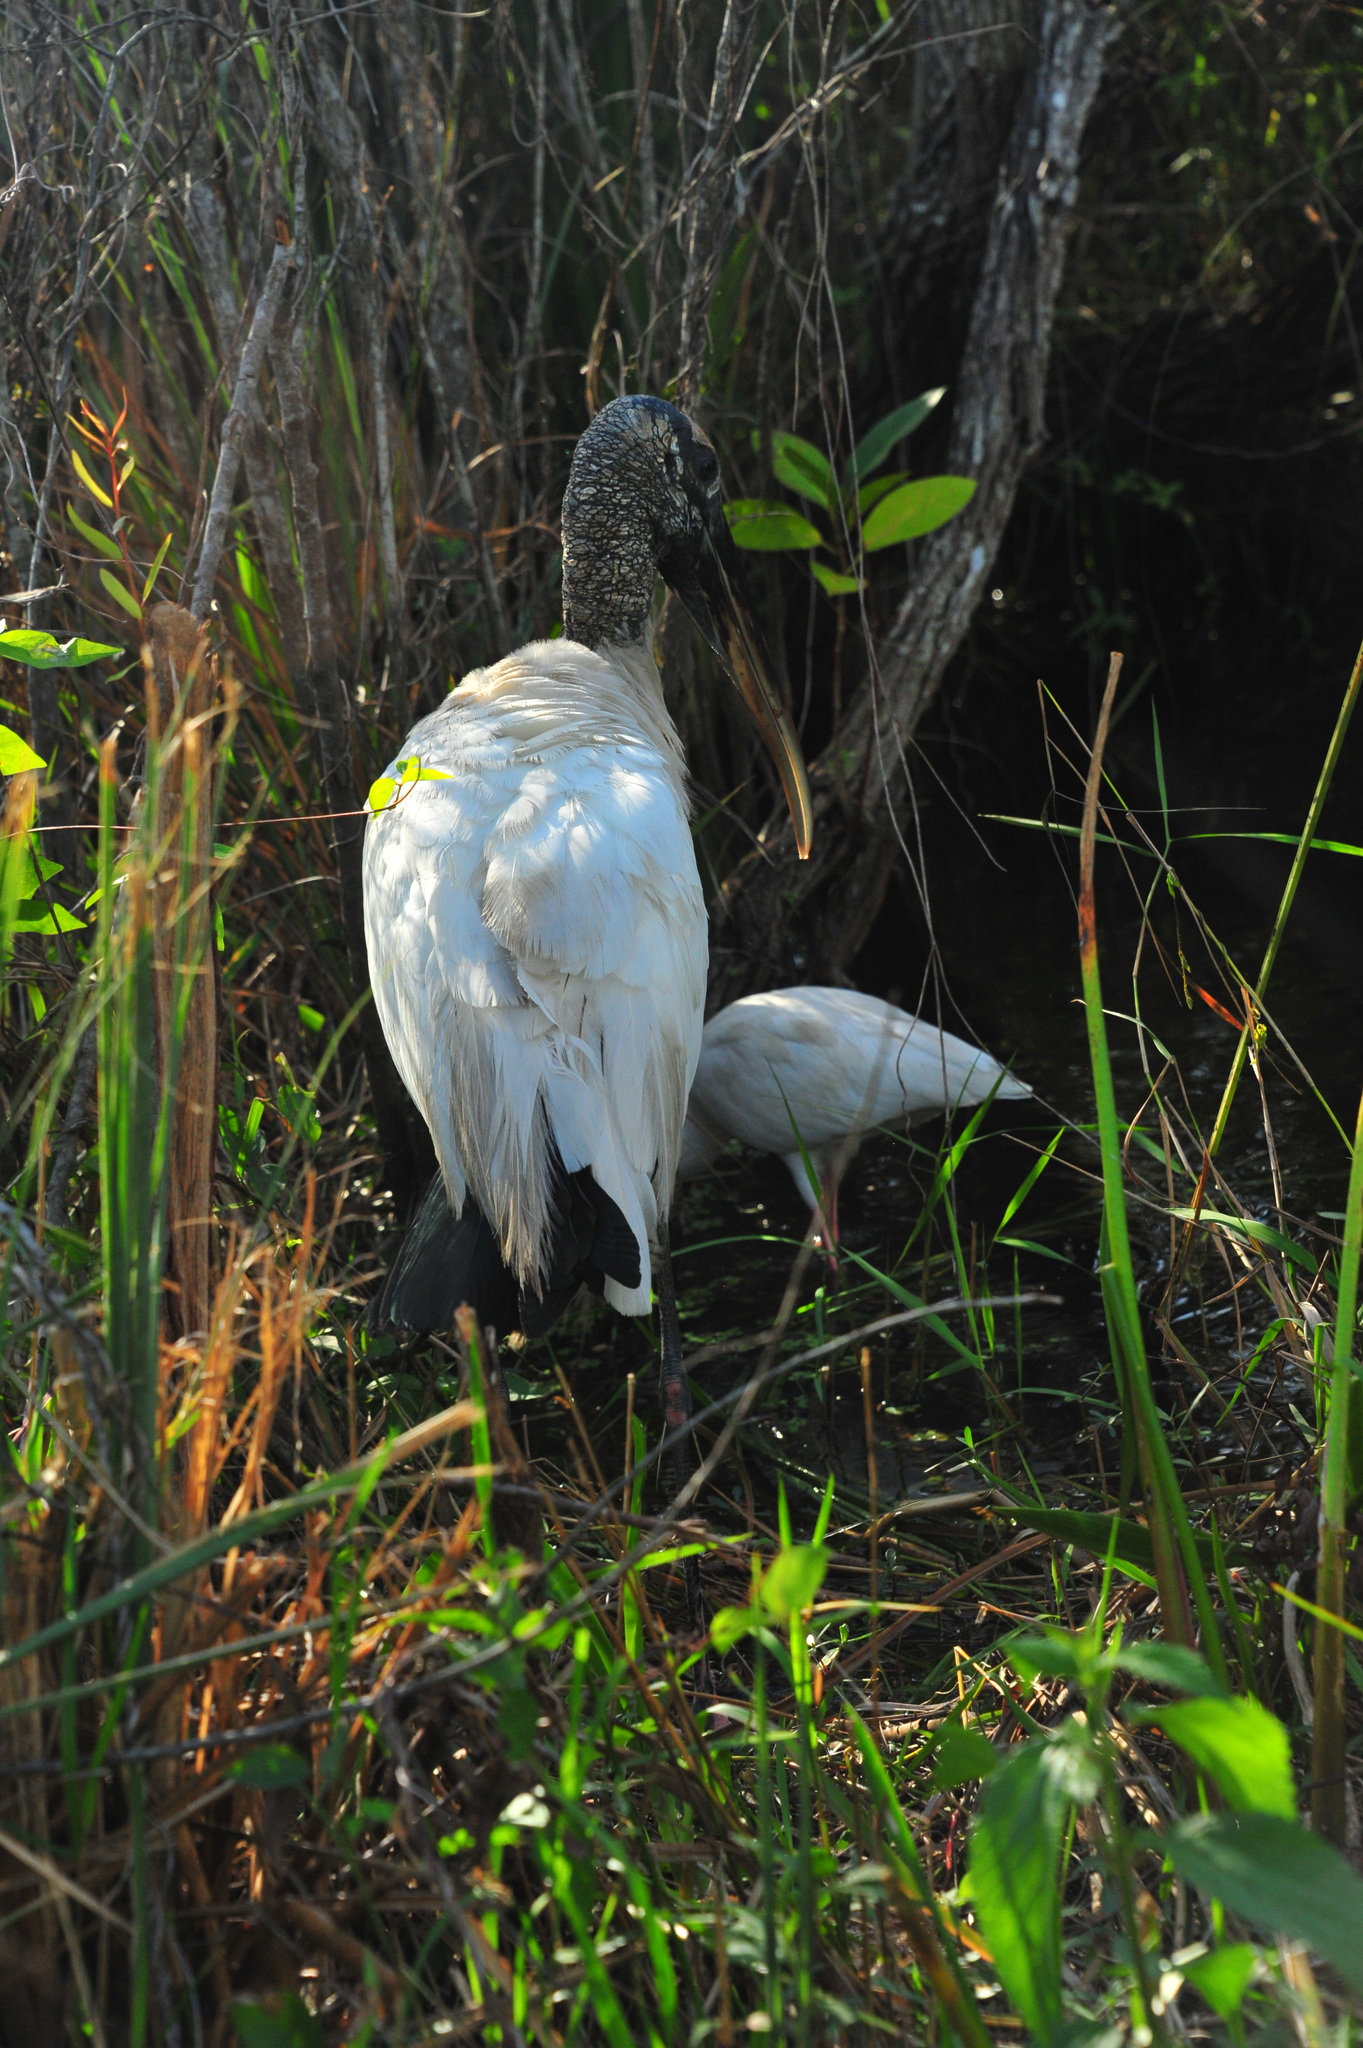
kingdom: Animalia
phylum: Chordata
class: Aves
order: Ciconiiformes
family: Ciconiidae
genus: Mycteria
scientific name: Mycteria americana
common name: Wood stork
